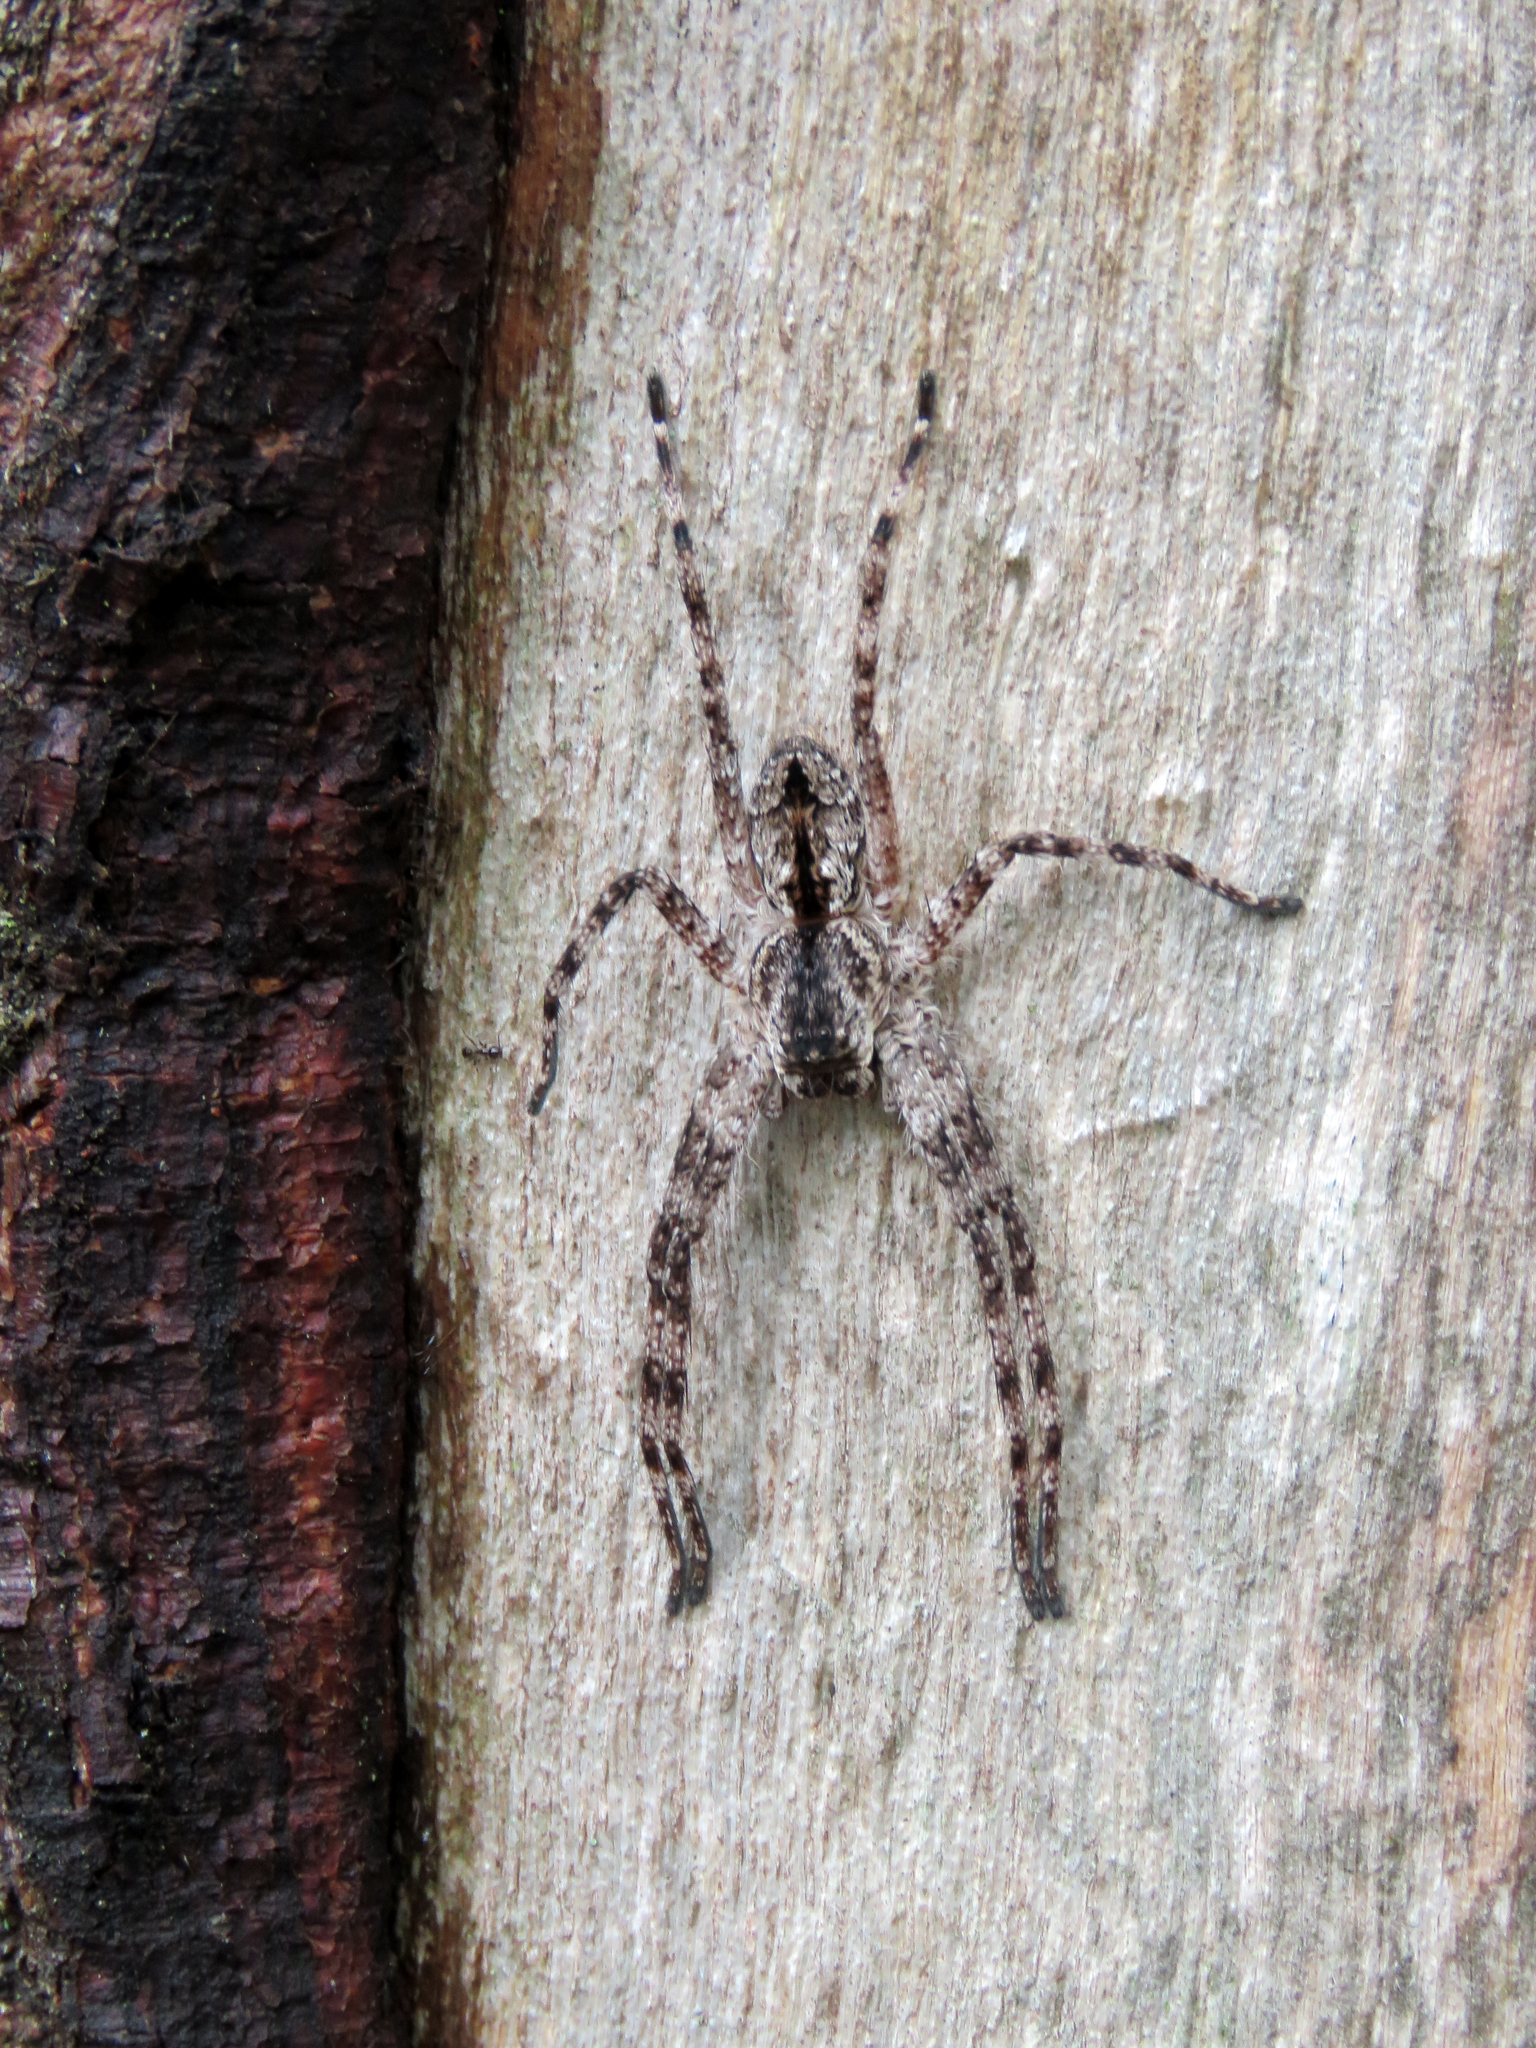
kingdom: Animalia
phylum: Arthropoda
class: Arachnida
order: Araneae
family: Sparassidae
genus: Pediana
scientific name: Pediana regina
